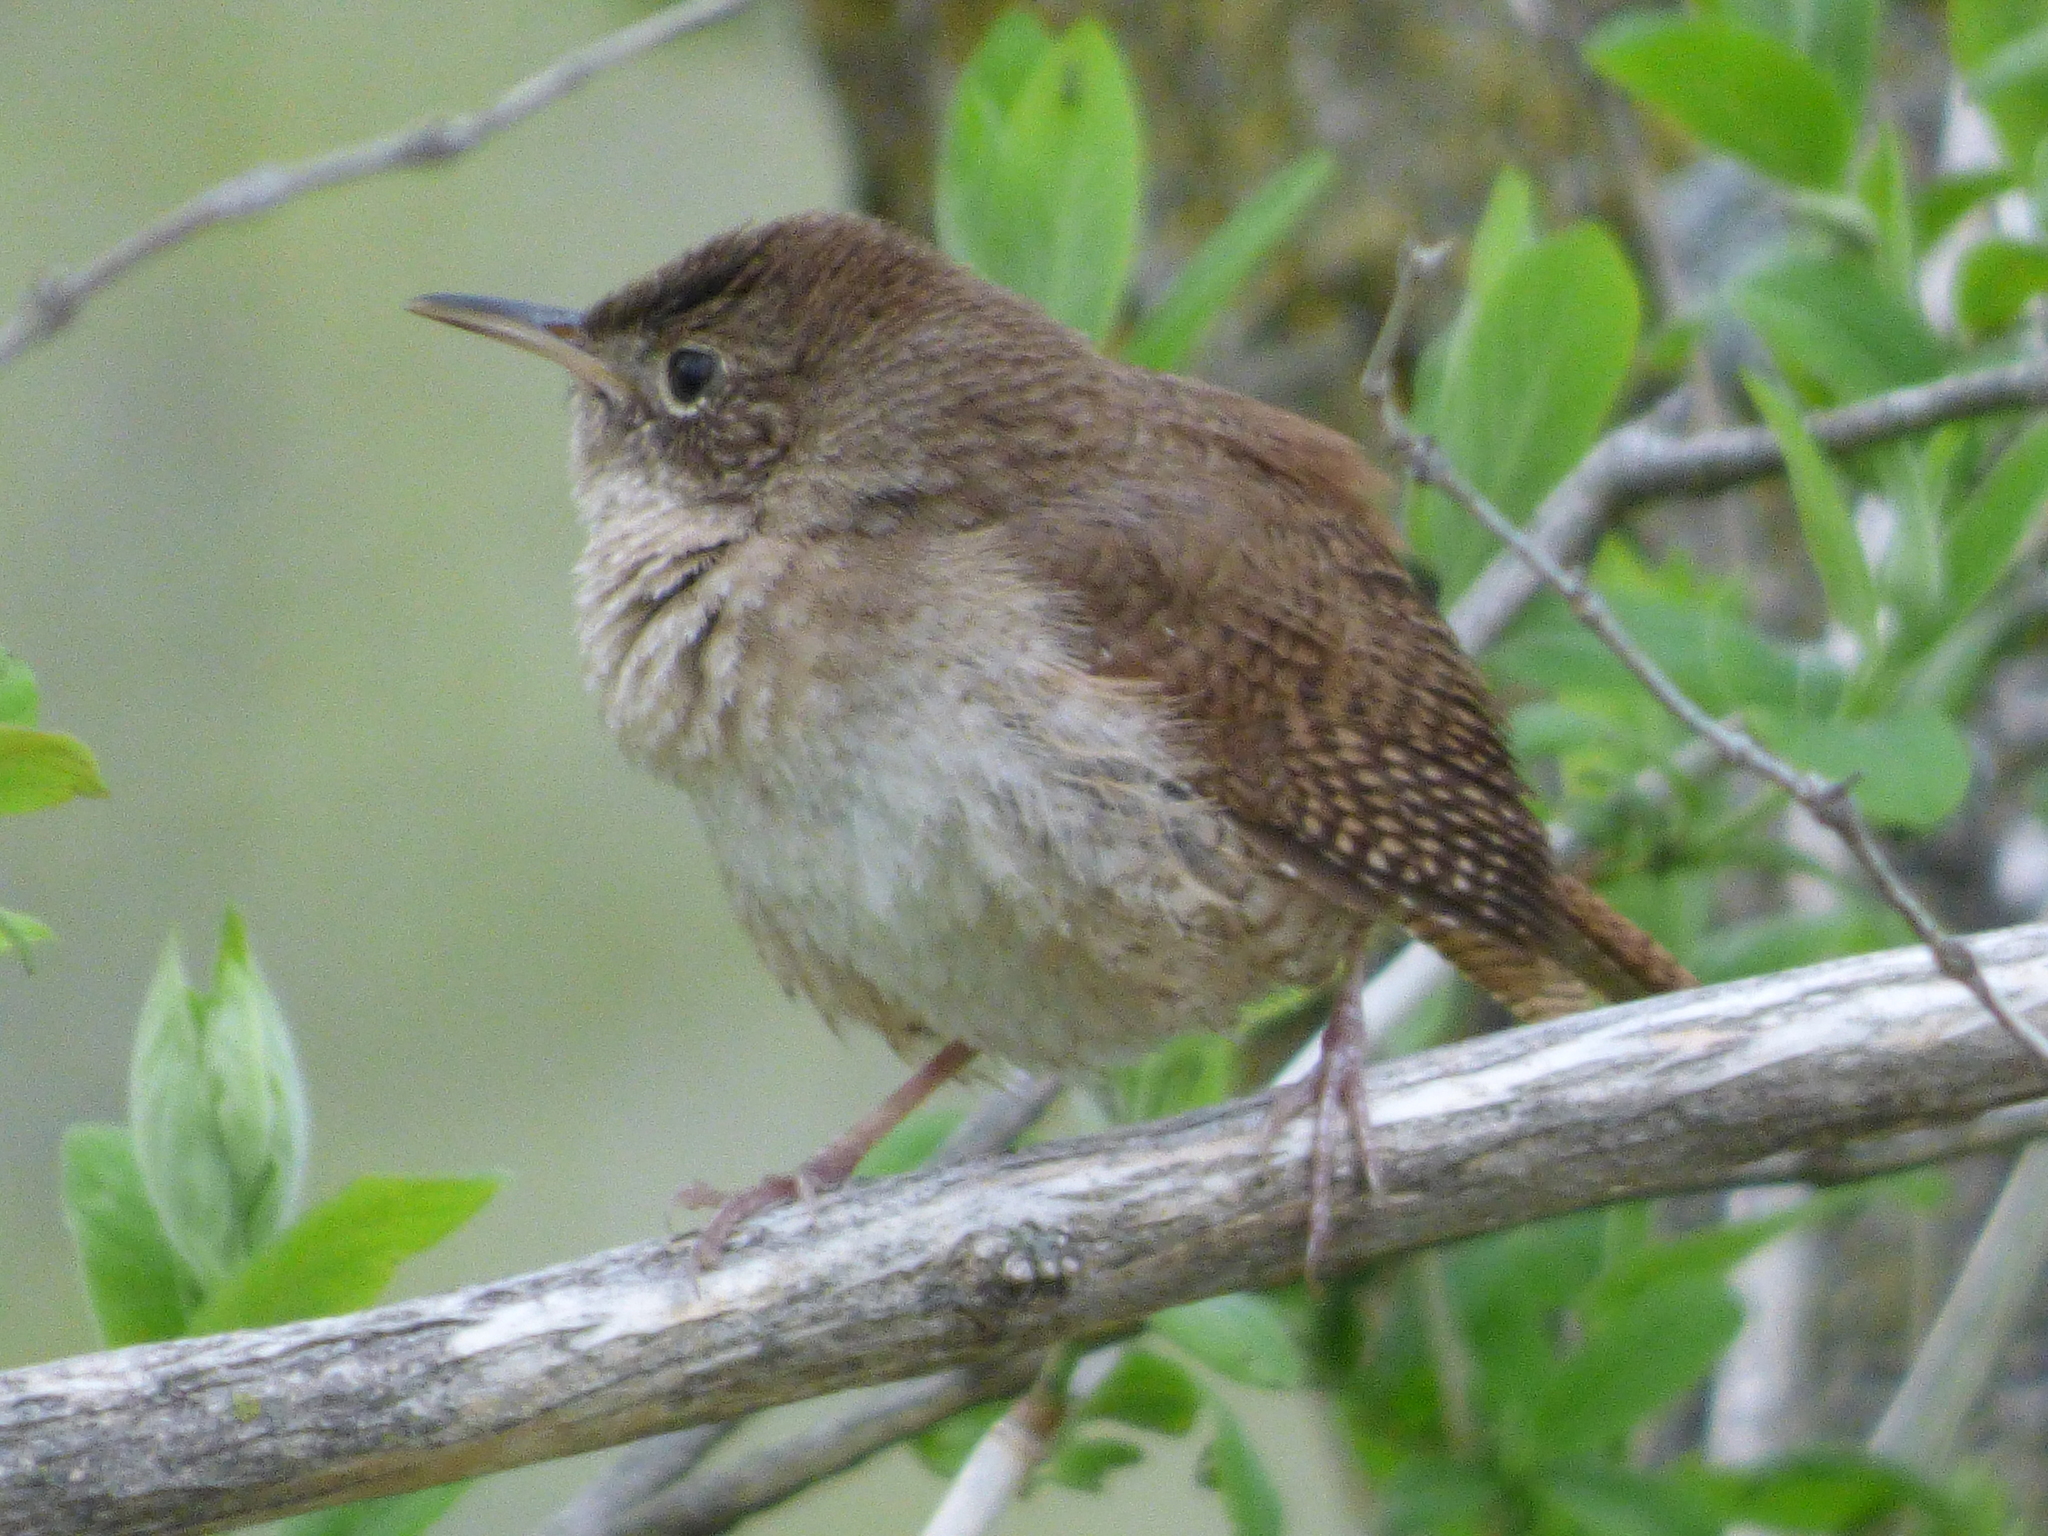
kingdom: Animalia
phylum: Chordata
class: Aves
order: Passeriformes
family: Troglodytidae
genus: Troglodytes
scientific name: Troglodytes aedon
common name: House wren
